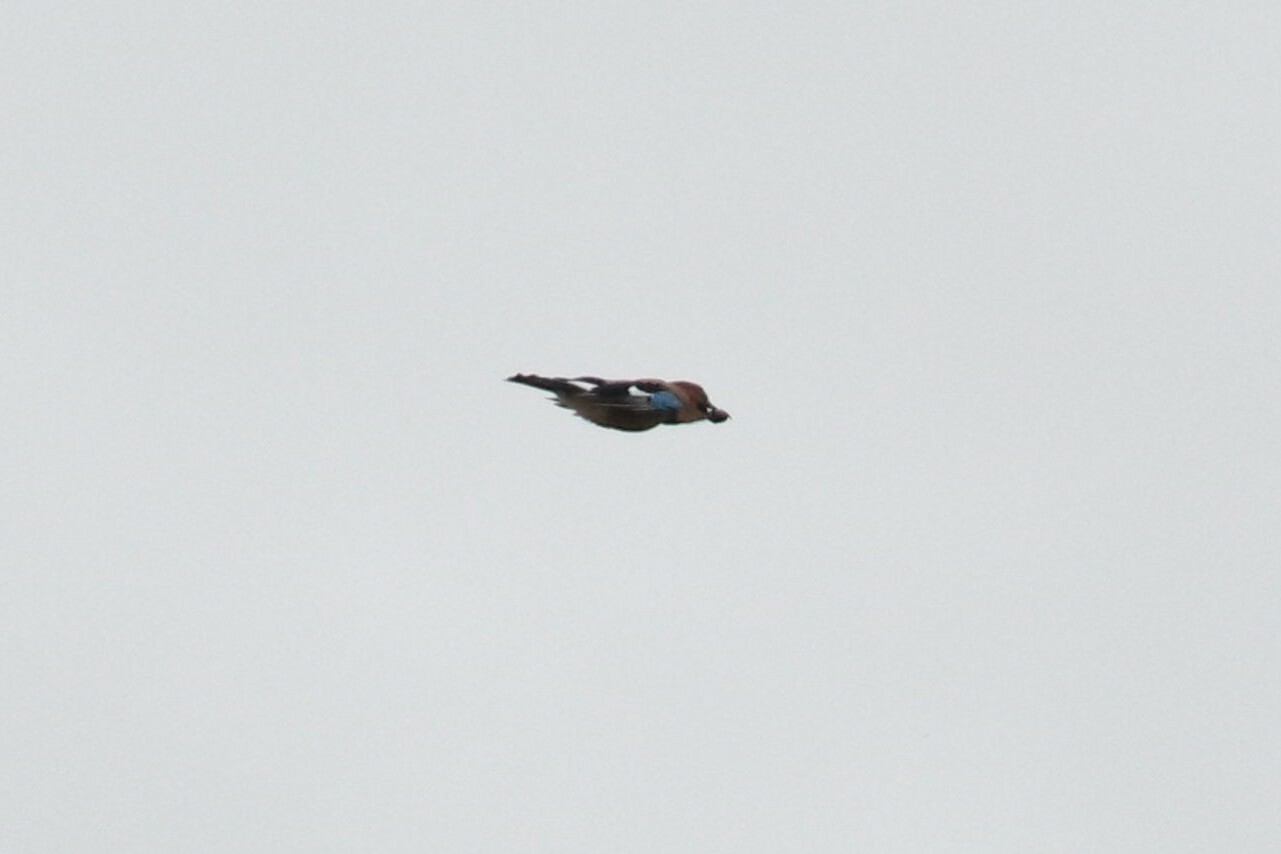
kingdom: Animalia
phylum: Chordata
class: Aves
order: Passeriformes
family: Corvidae
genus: Garrulus
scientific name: Garrulus glandarius
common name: Eurasian jay
